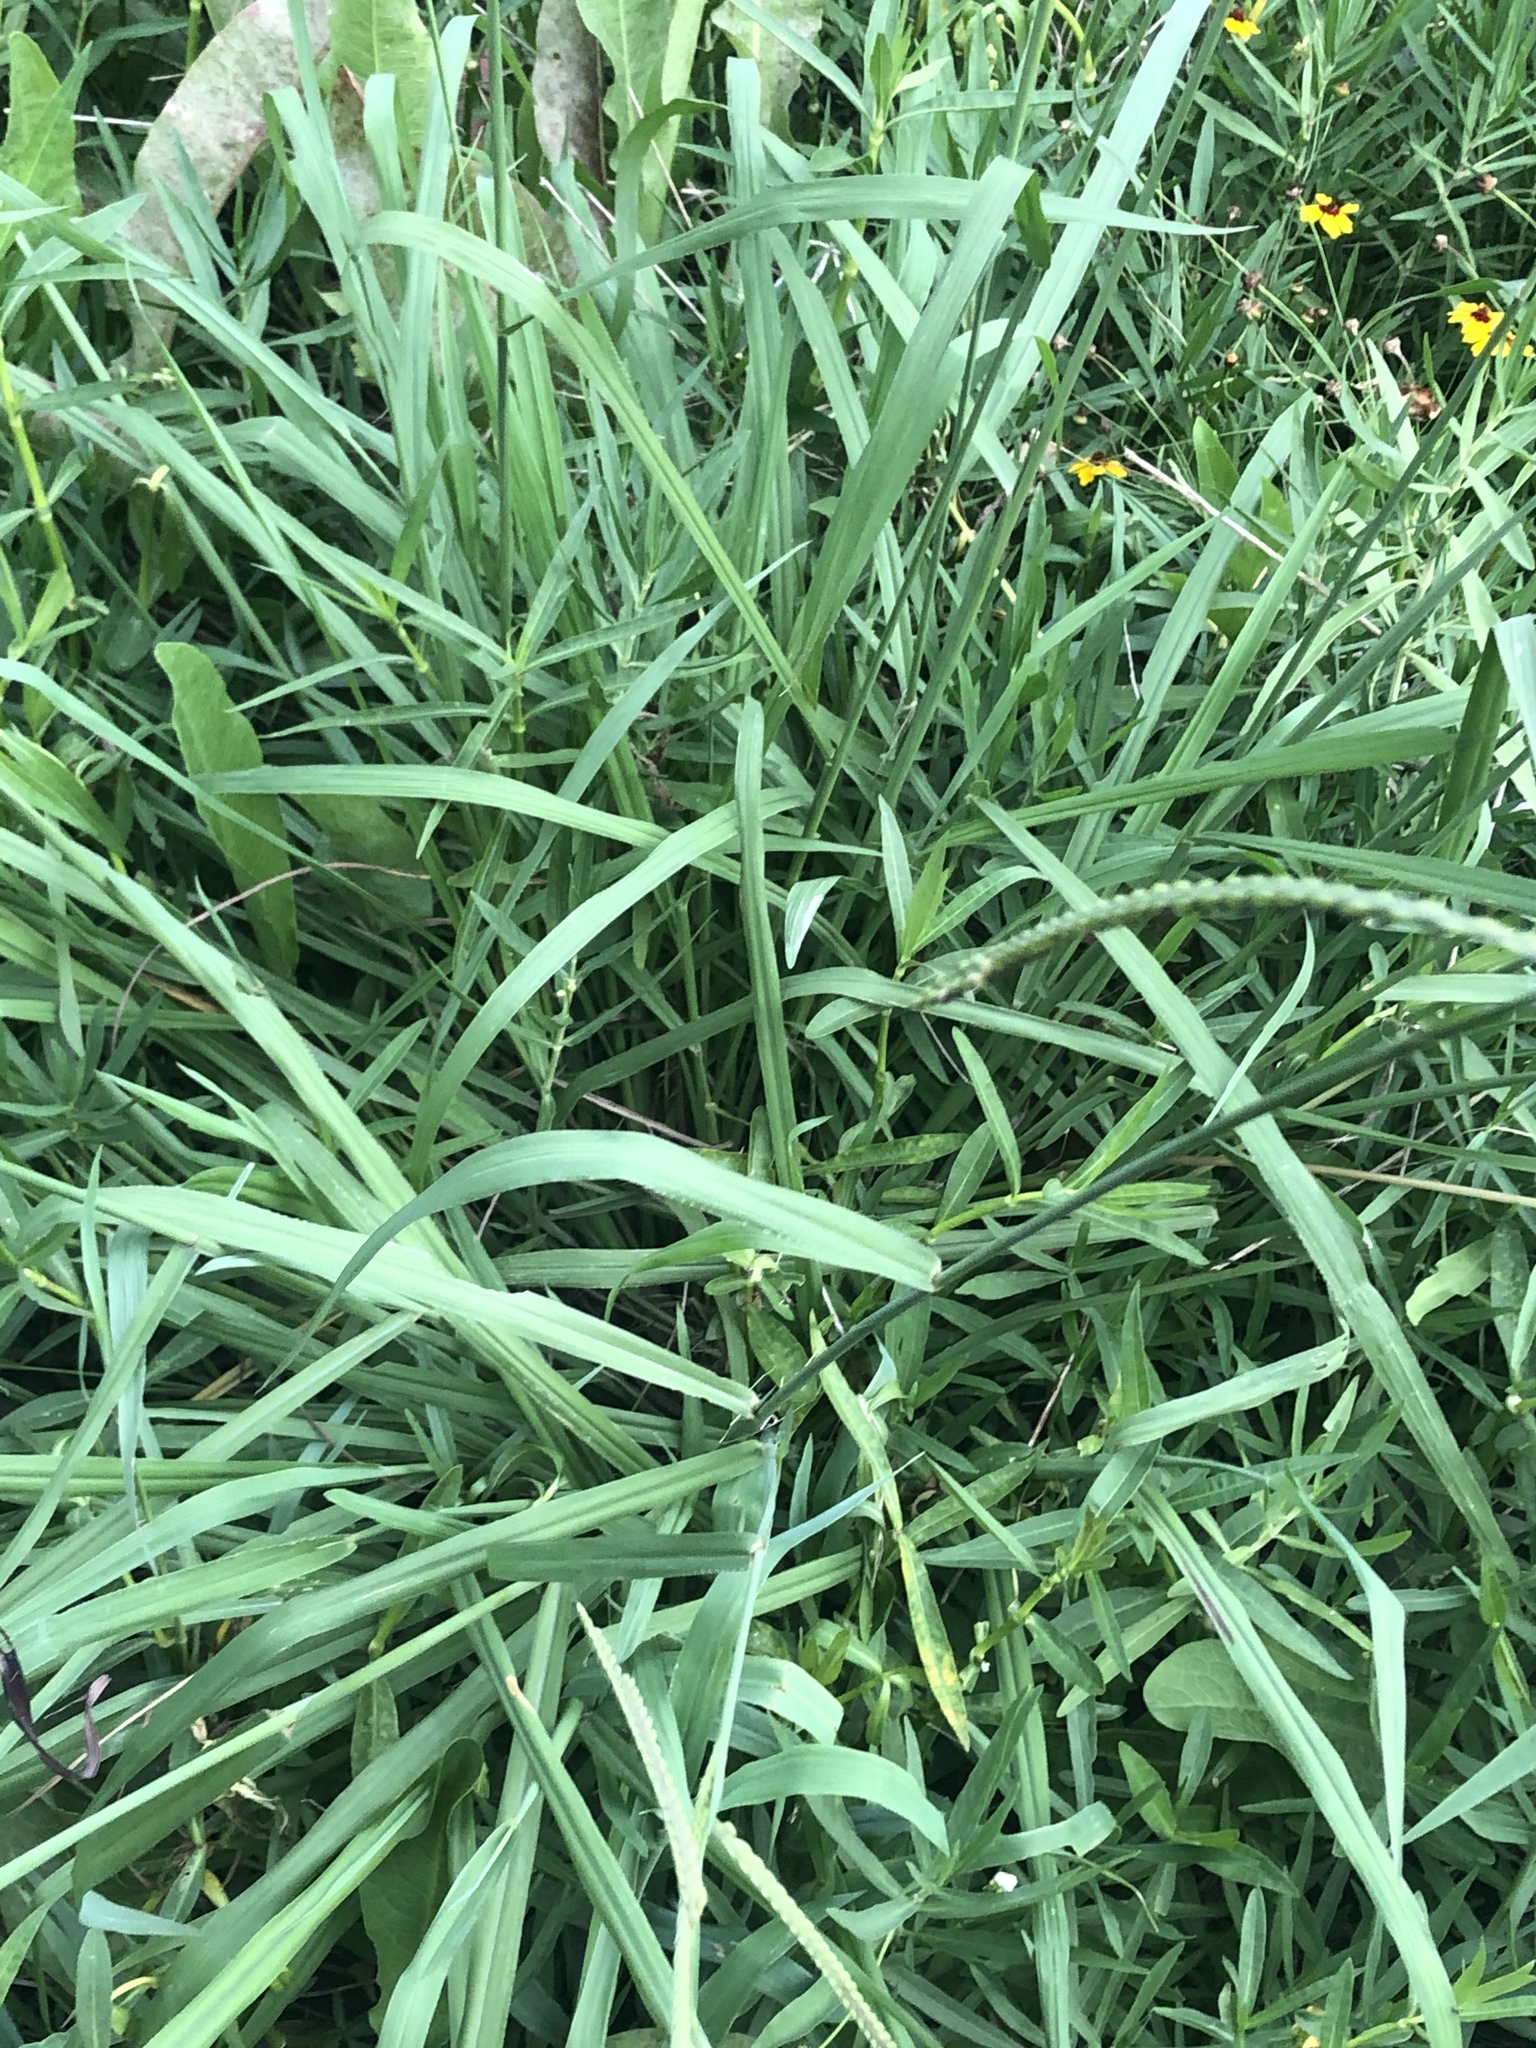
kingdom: Plantae
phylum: Tracheophyta
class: Liliopsida
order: Poales
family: Poaceae
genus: Paspalum
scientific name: Paspalum dilatatum
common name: Dallisgrass
